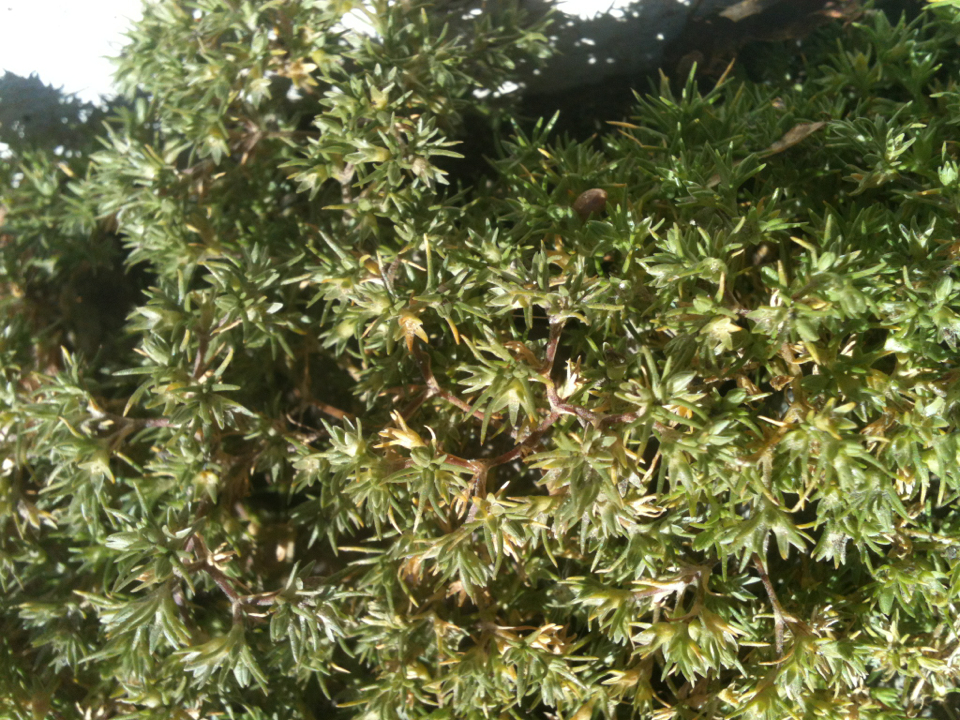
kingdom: Plantae
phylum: Tracheophyta
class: Magnoliopsida
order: Caryophyllales
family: Caryophyllaceae
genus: Scleranthus
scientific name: Scleranthus annuus
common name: Annual knawel
